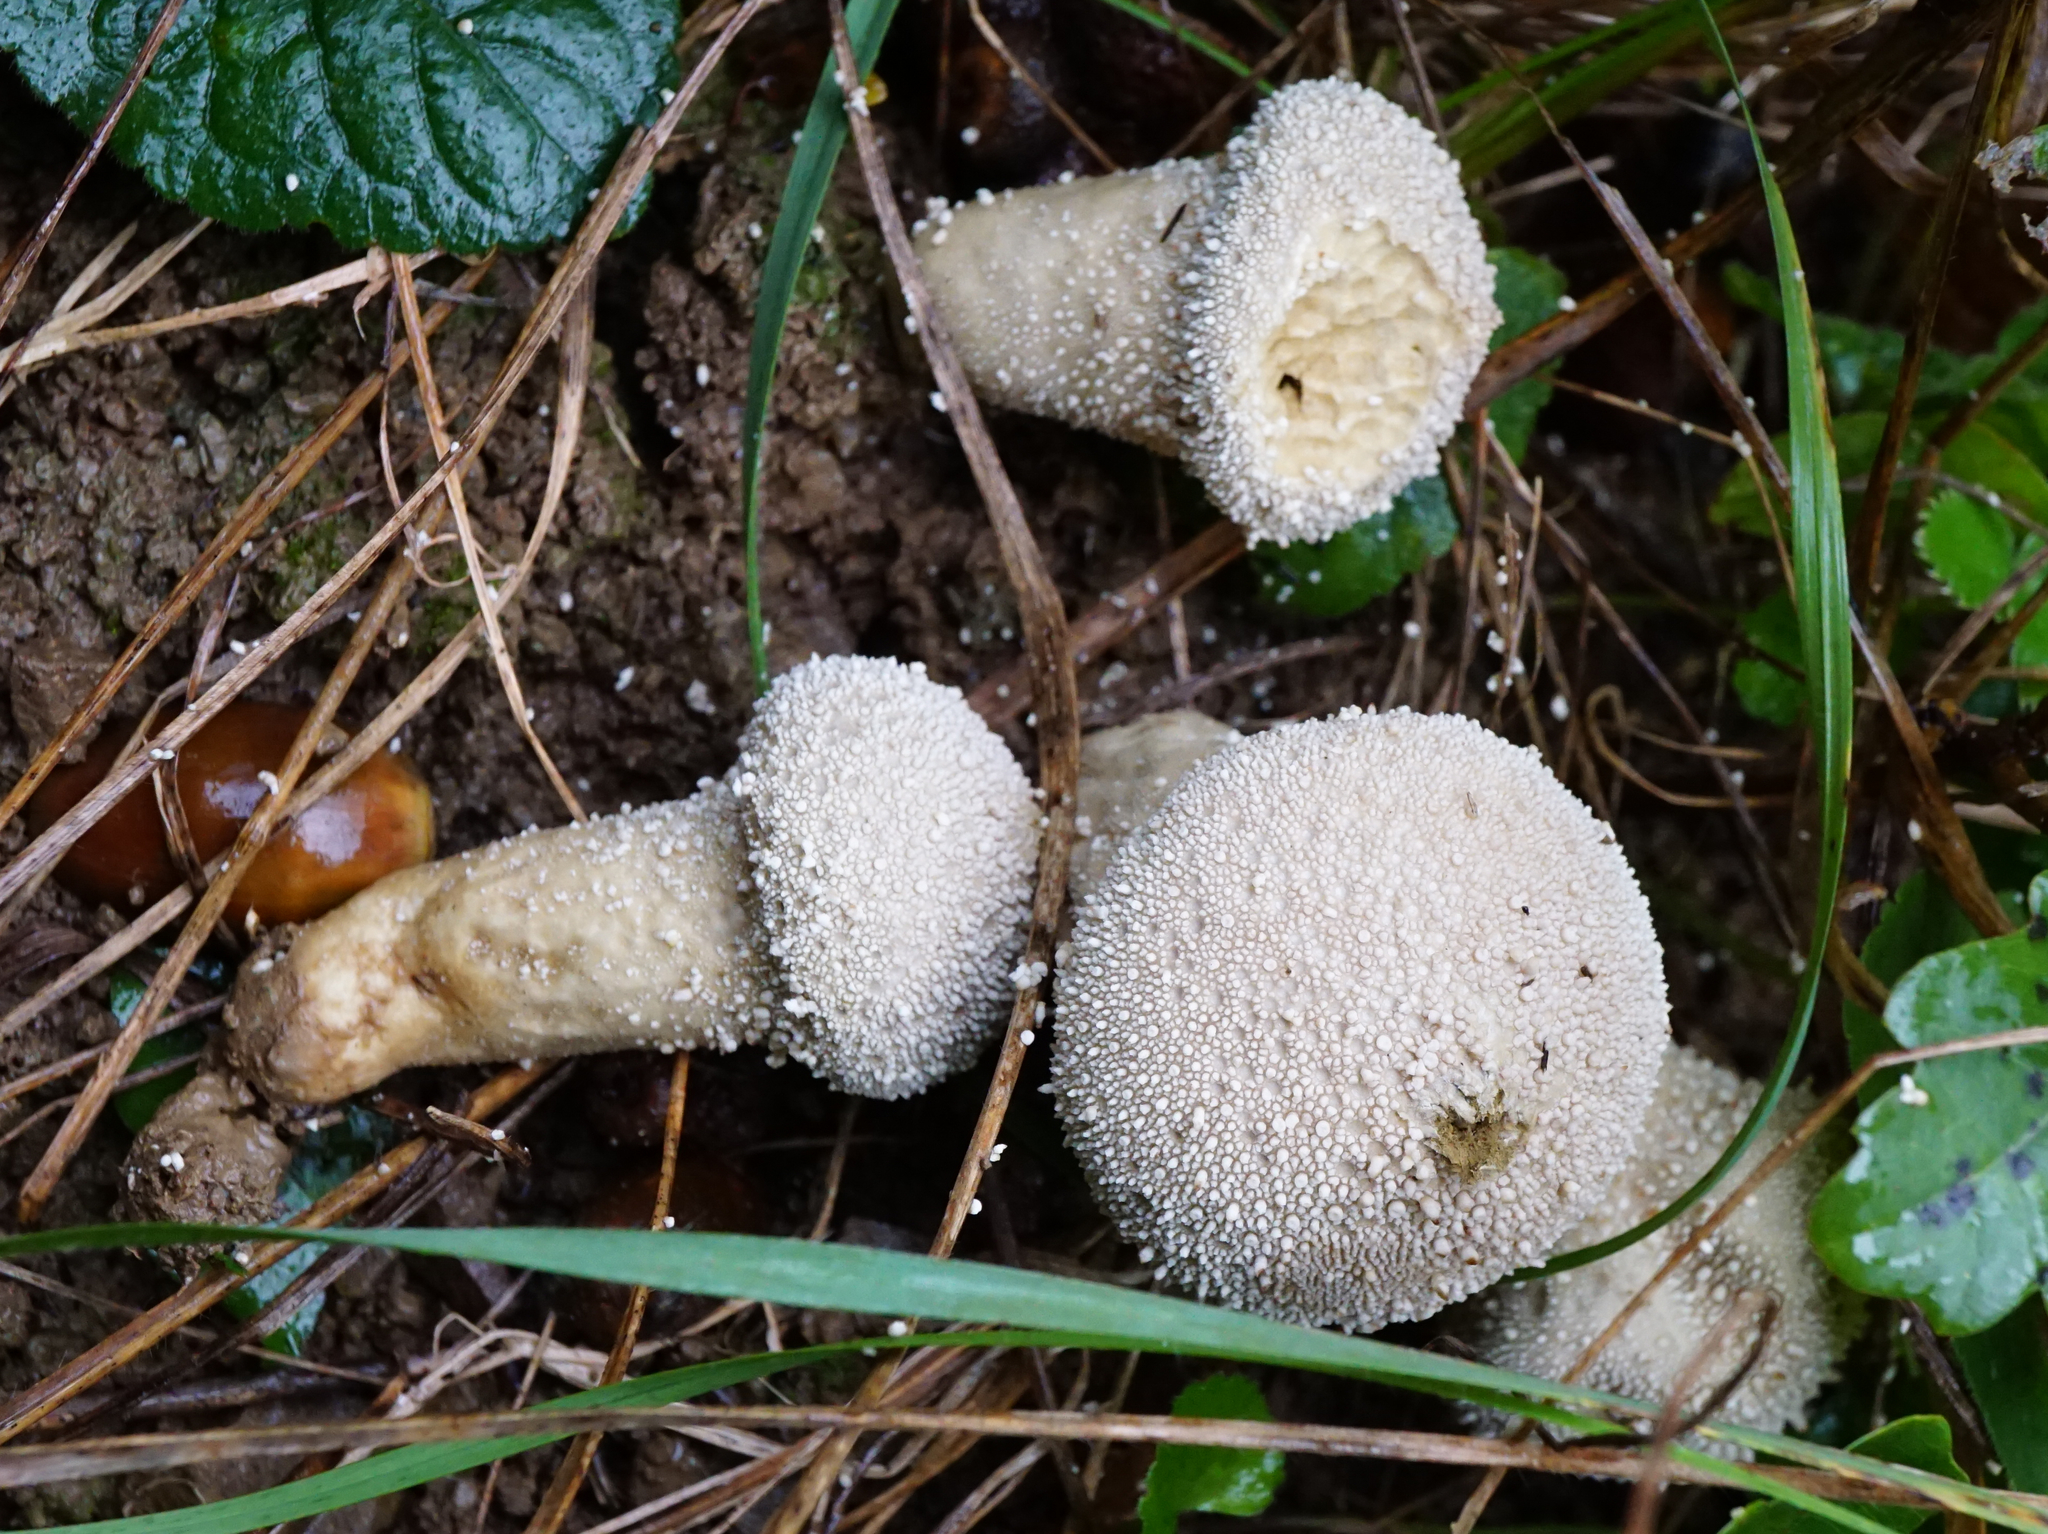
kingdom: Fungi
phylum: Basidiomycota
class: Agaricomycetes
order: Agaricales
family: Lycoperdaceae
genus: Lycoperdon
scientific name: Lycoperdon perlatum
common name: Common puffball
